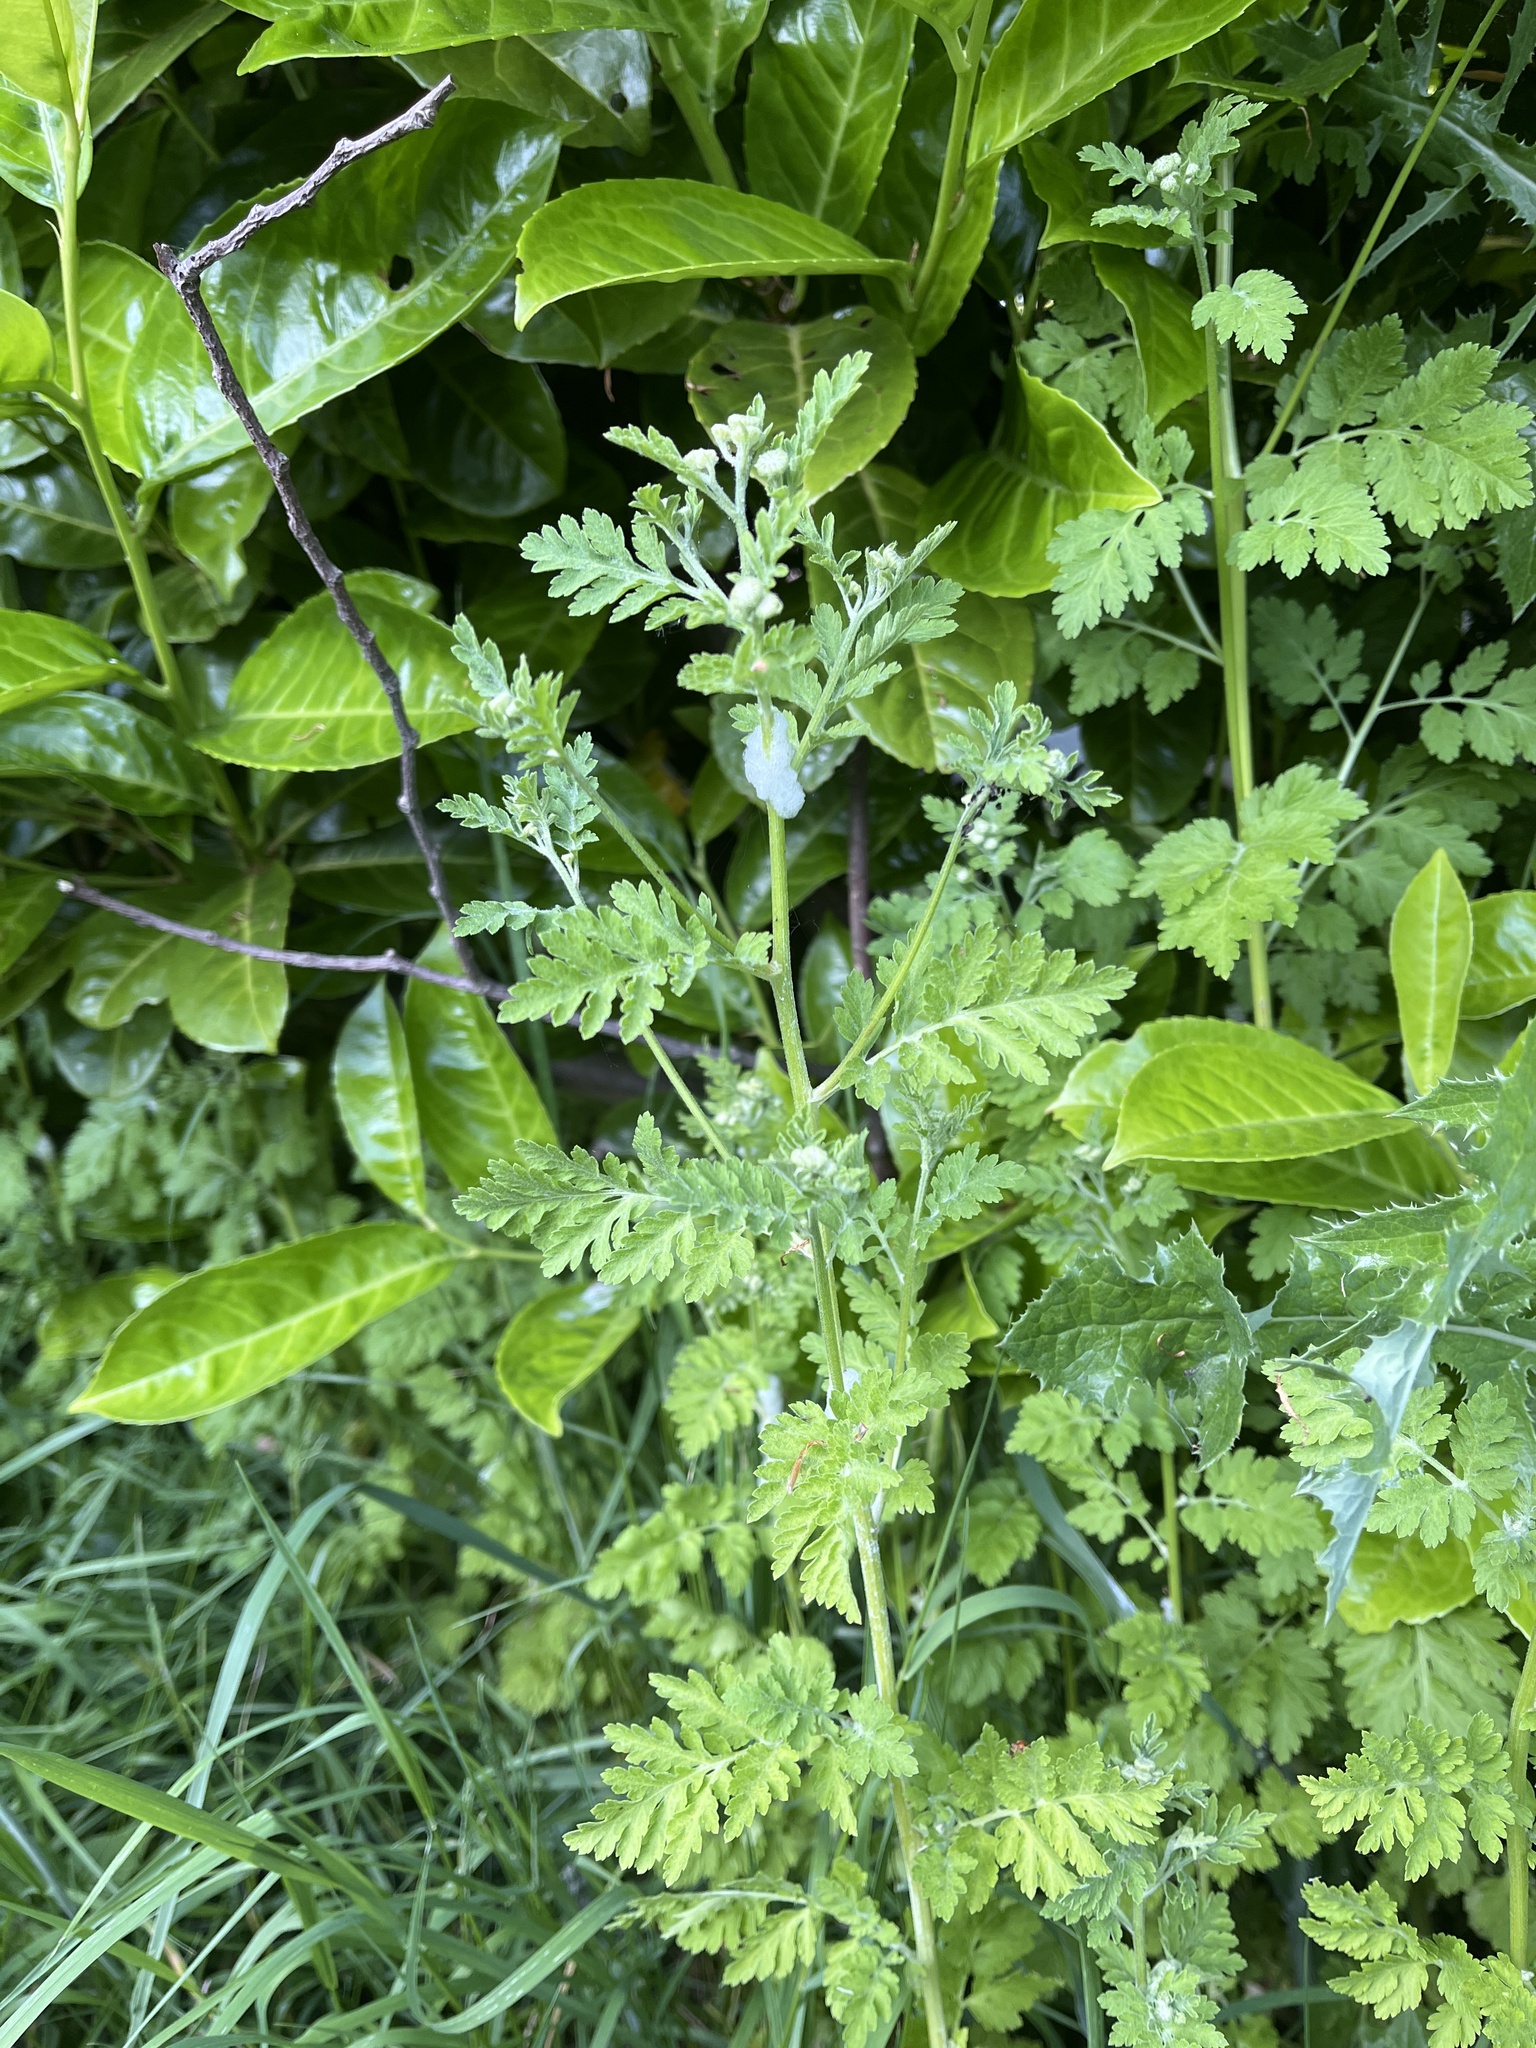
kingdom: Plantae
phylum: Tracheophyta
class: Magnoliopsida
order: Asterales
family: Asteraceae
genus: Tanacetum
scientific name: Tanacetum parthenium
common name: Feverfew
